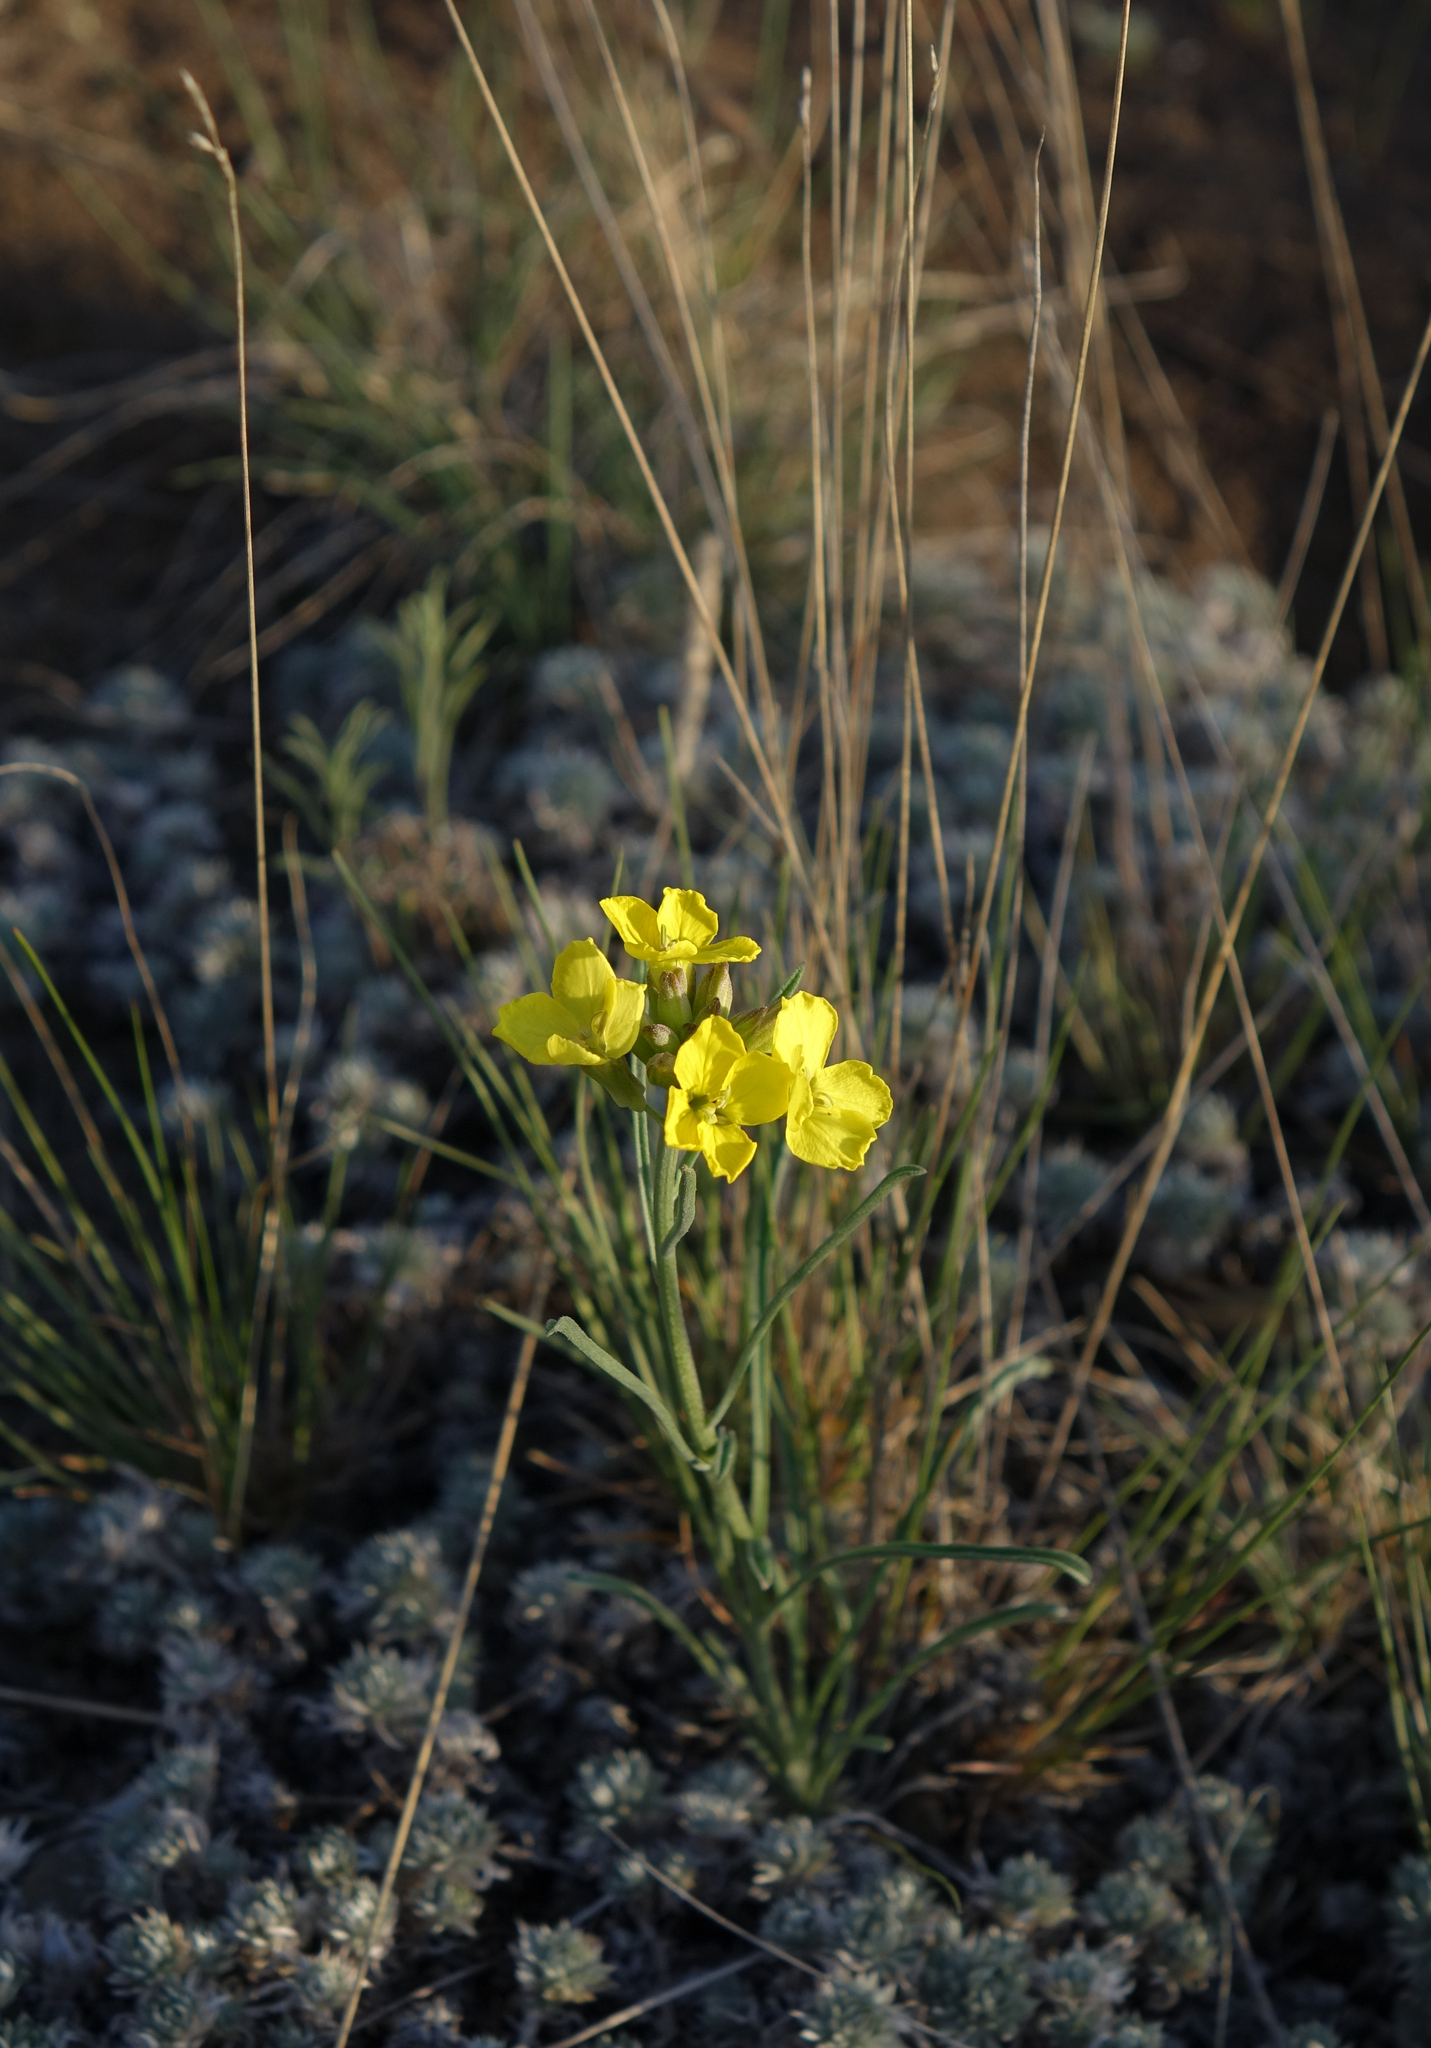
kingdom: Plantae
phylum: Tracheophyta
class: Magnoliopsida
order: Brassicales
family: Brassicaceae
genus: Erysimum
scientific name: Erysimum flavum
